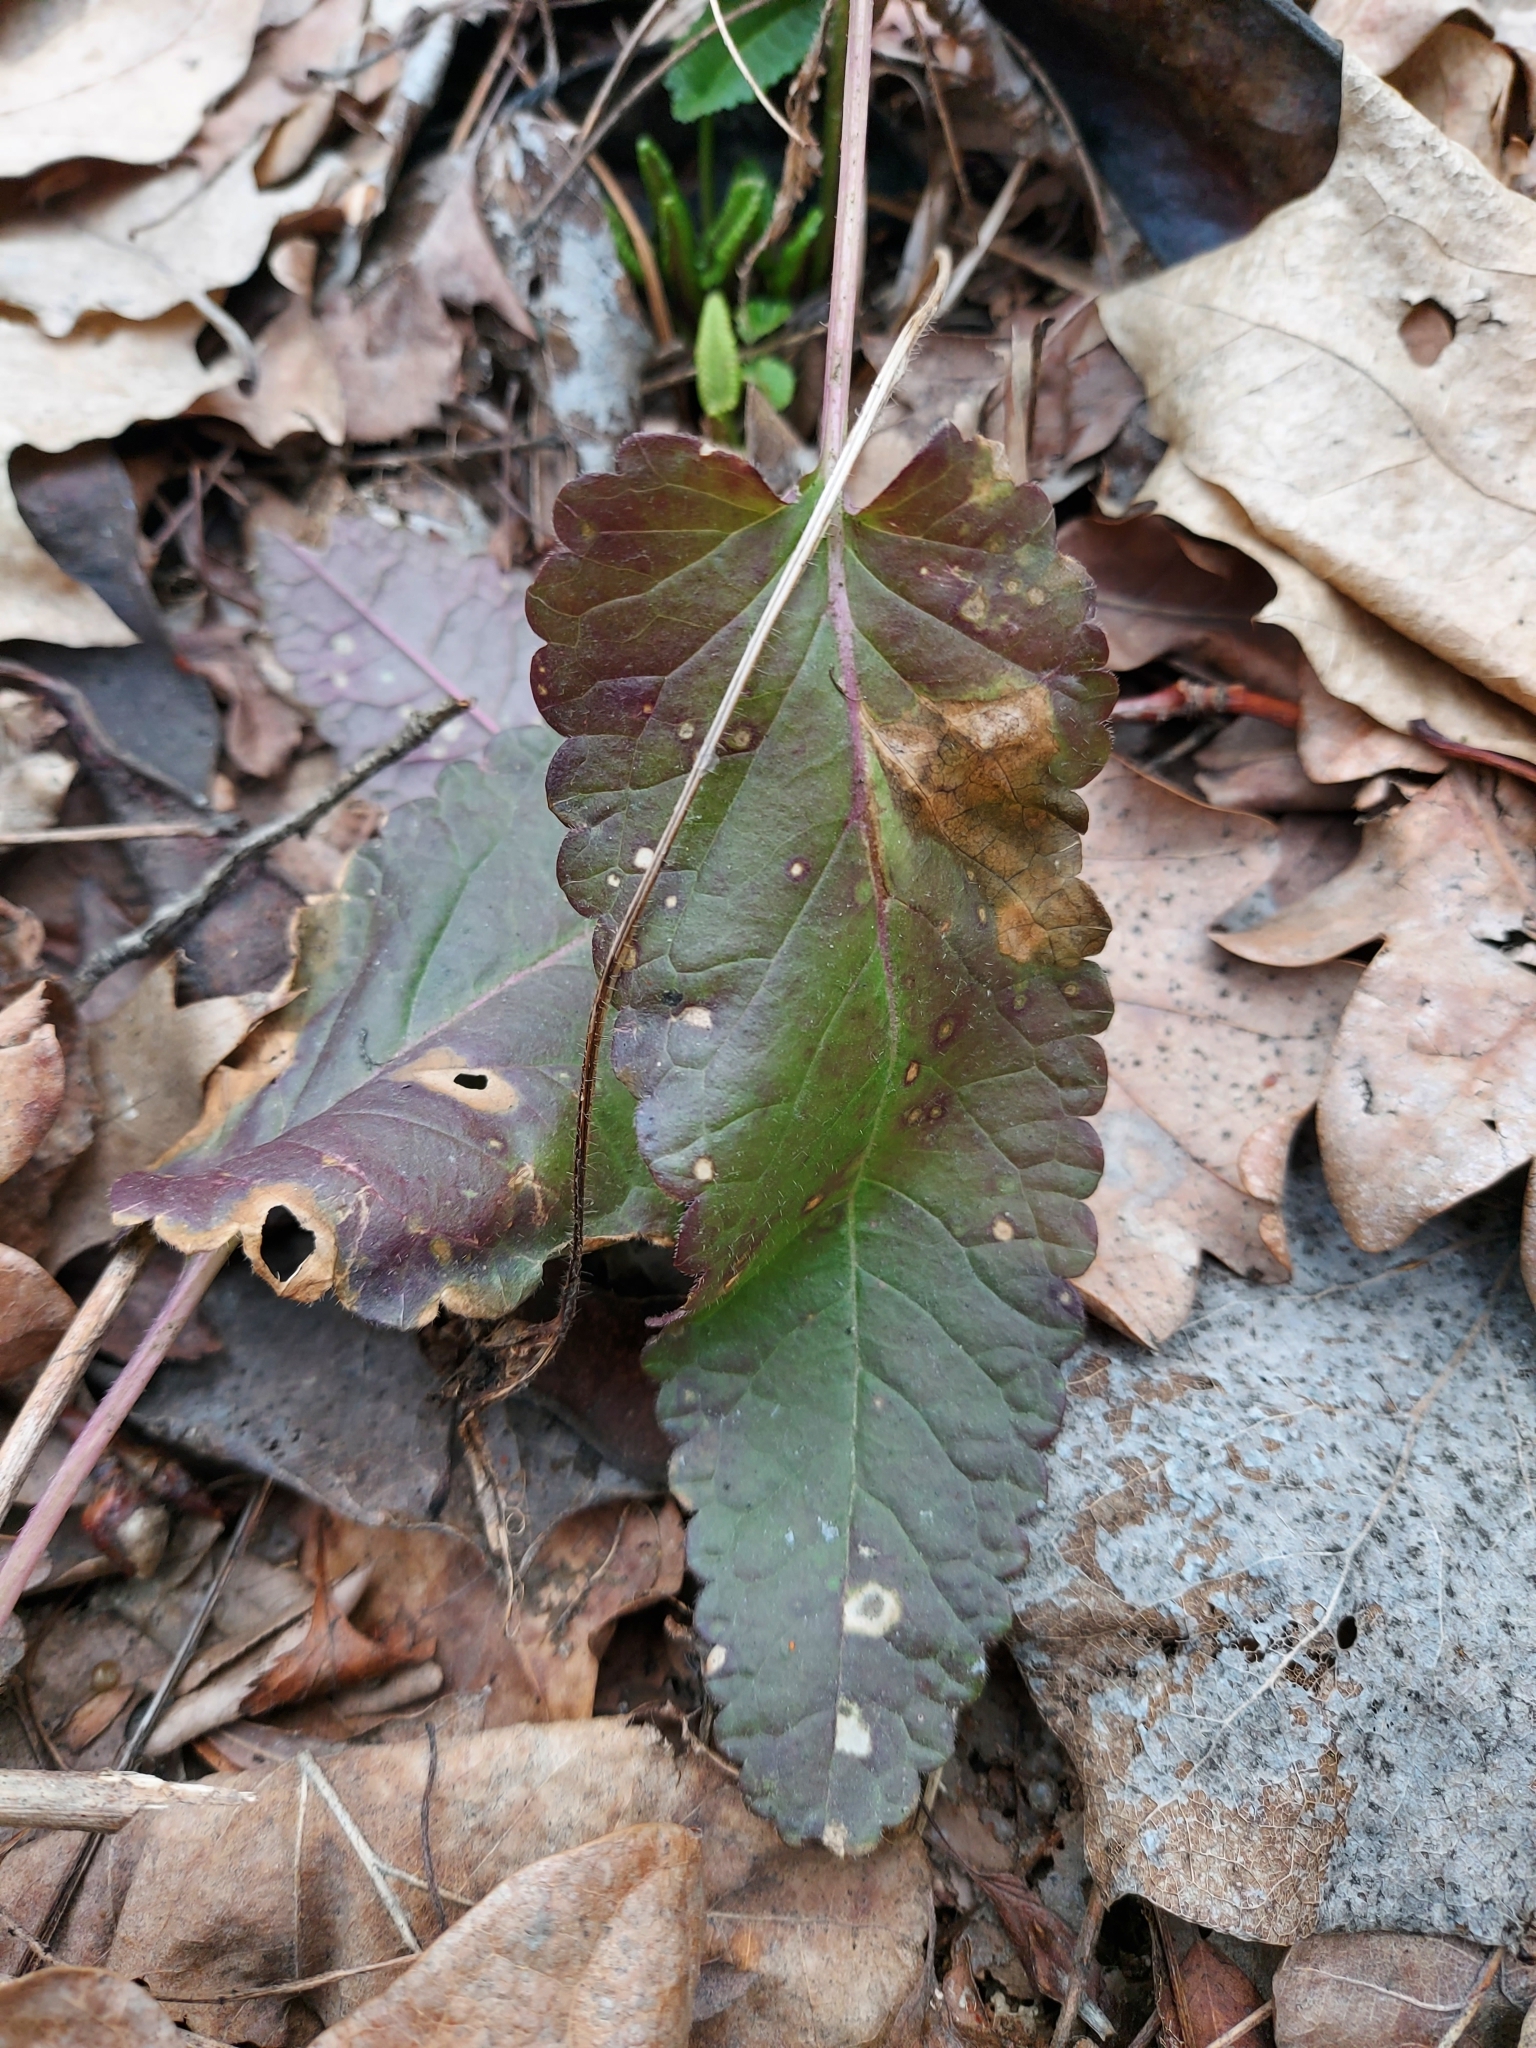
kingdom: Plantae
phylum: Tracheophyta
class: Magnoliopsida
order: Lamiales
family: Lamiaceae
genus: Betonica
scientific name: Betonica officinalis
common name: Bishop's-wort
